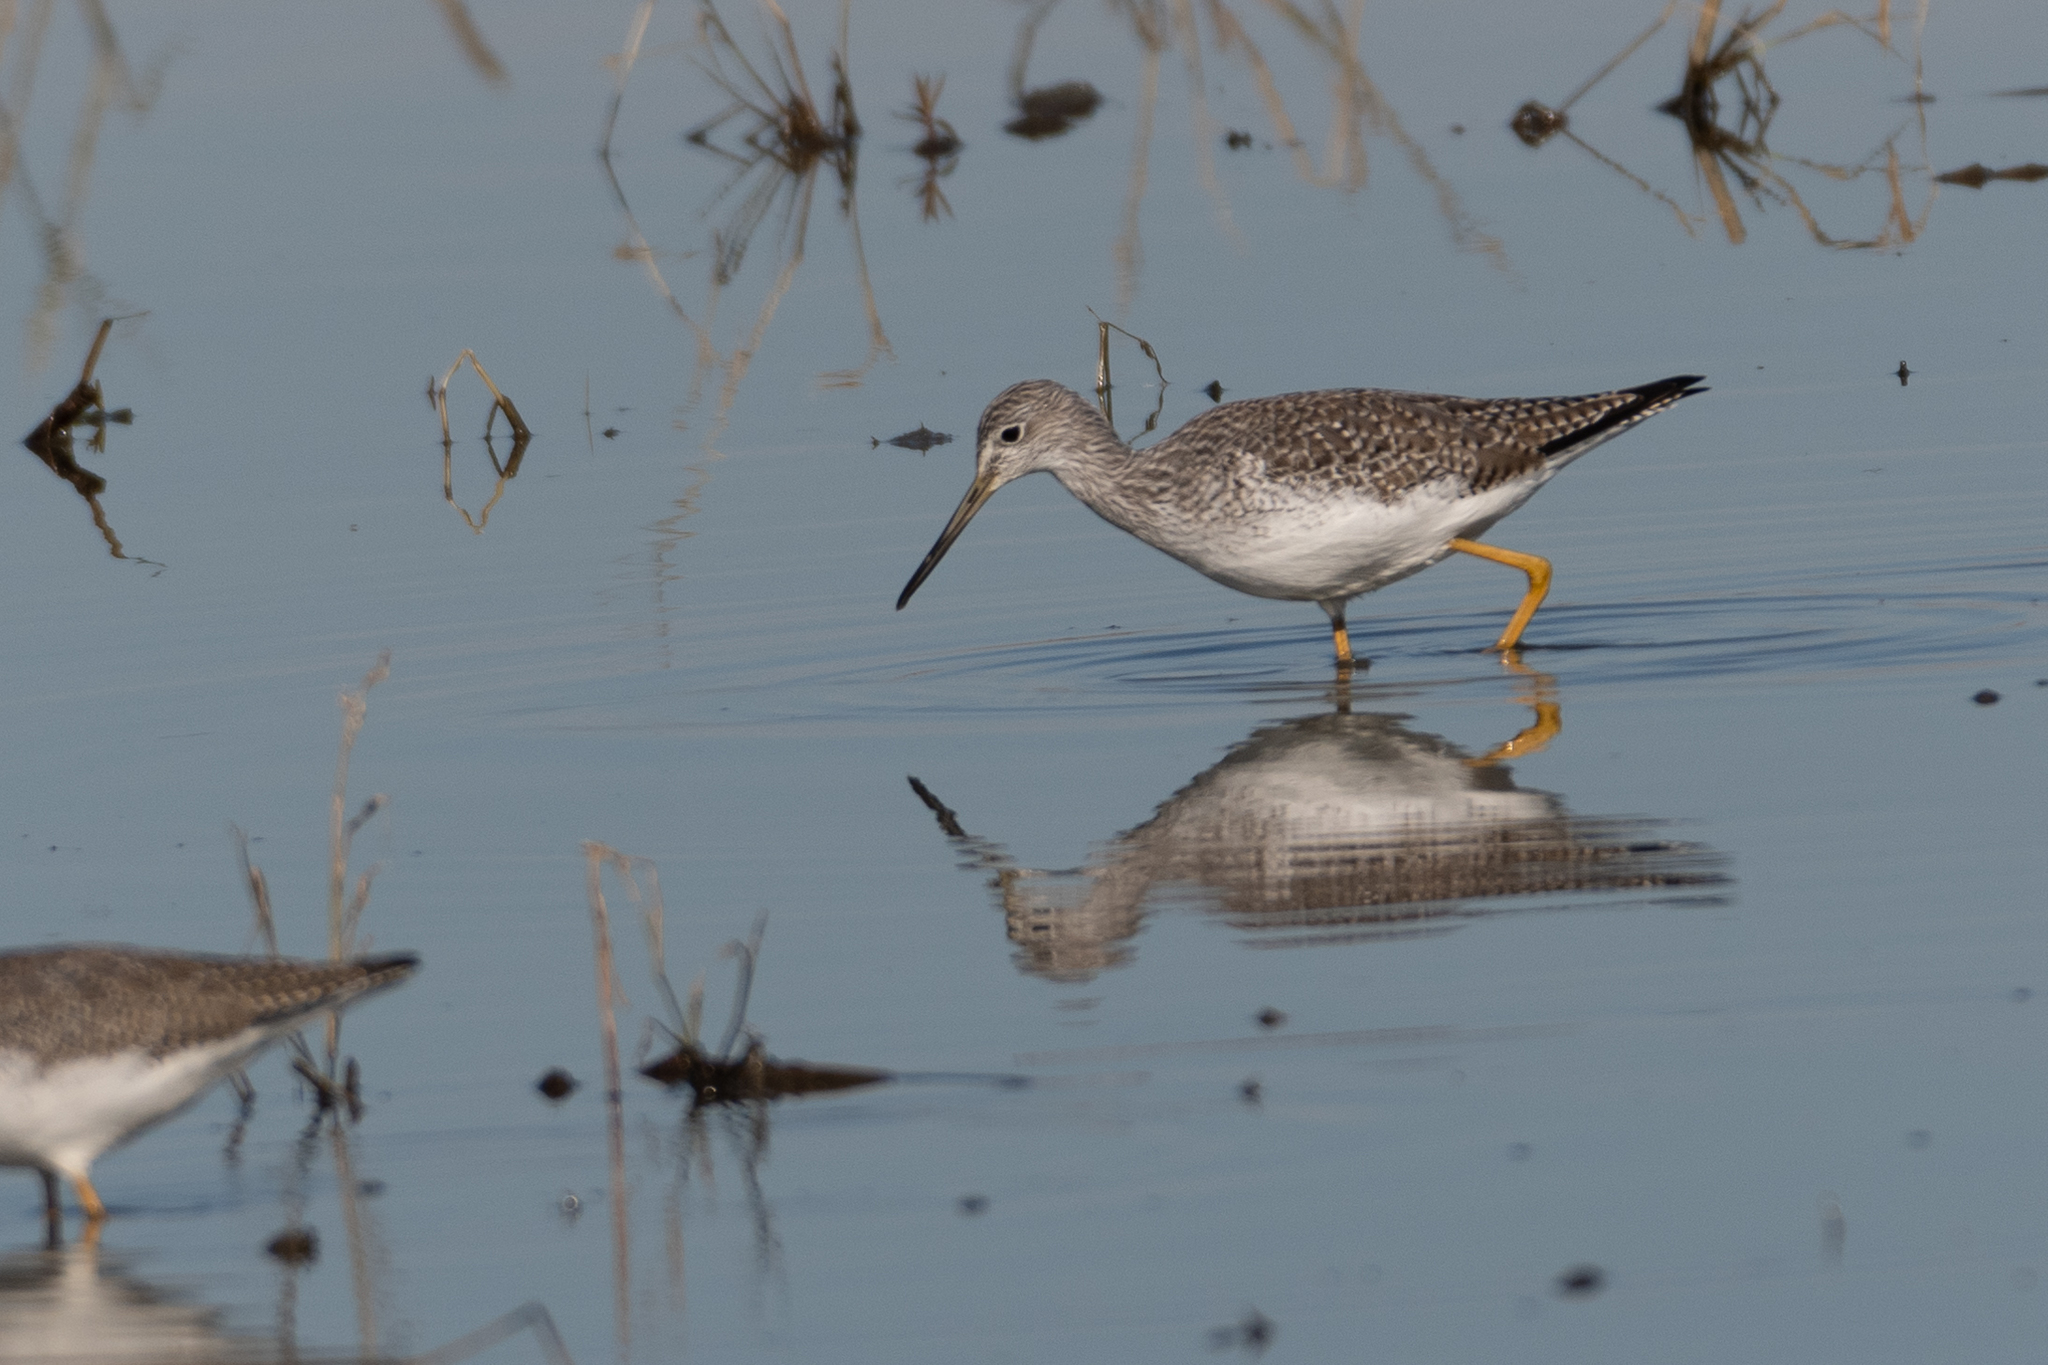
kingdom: Animalia
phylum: Chordata
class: Aves
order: Charadriiformes
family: Scolopacidae
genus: Tringa
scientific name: Tringa melanoleuca
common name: Greater yellowlegs
